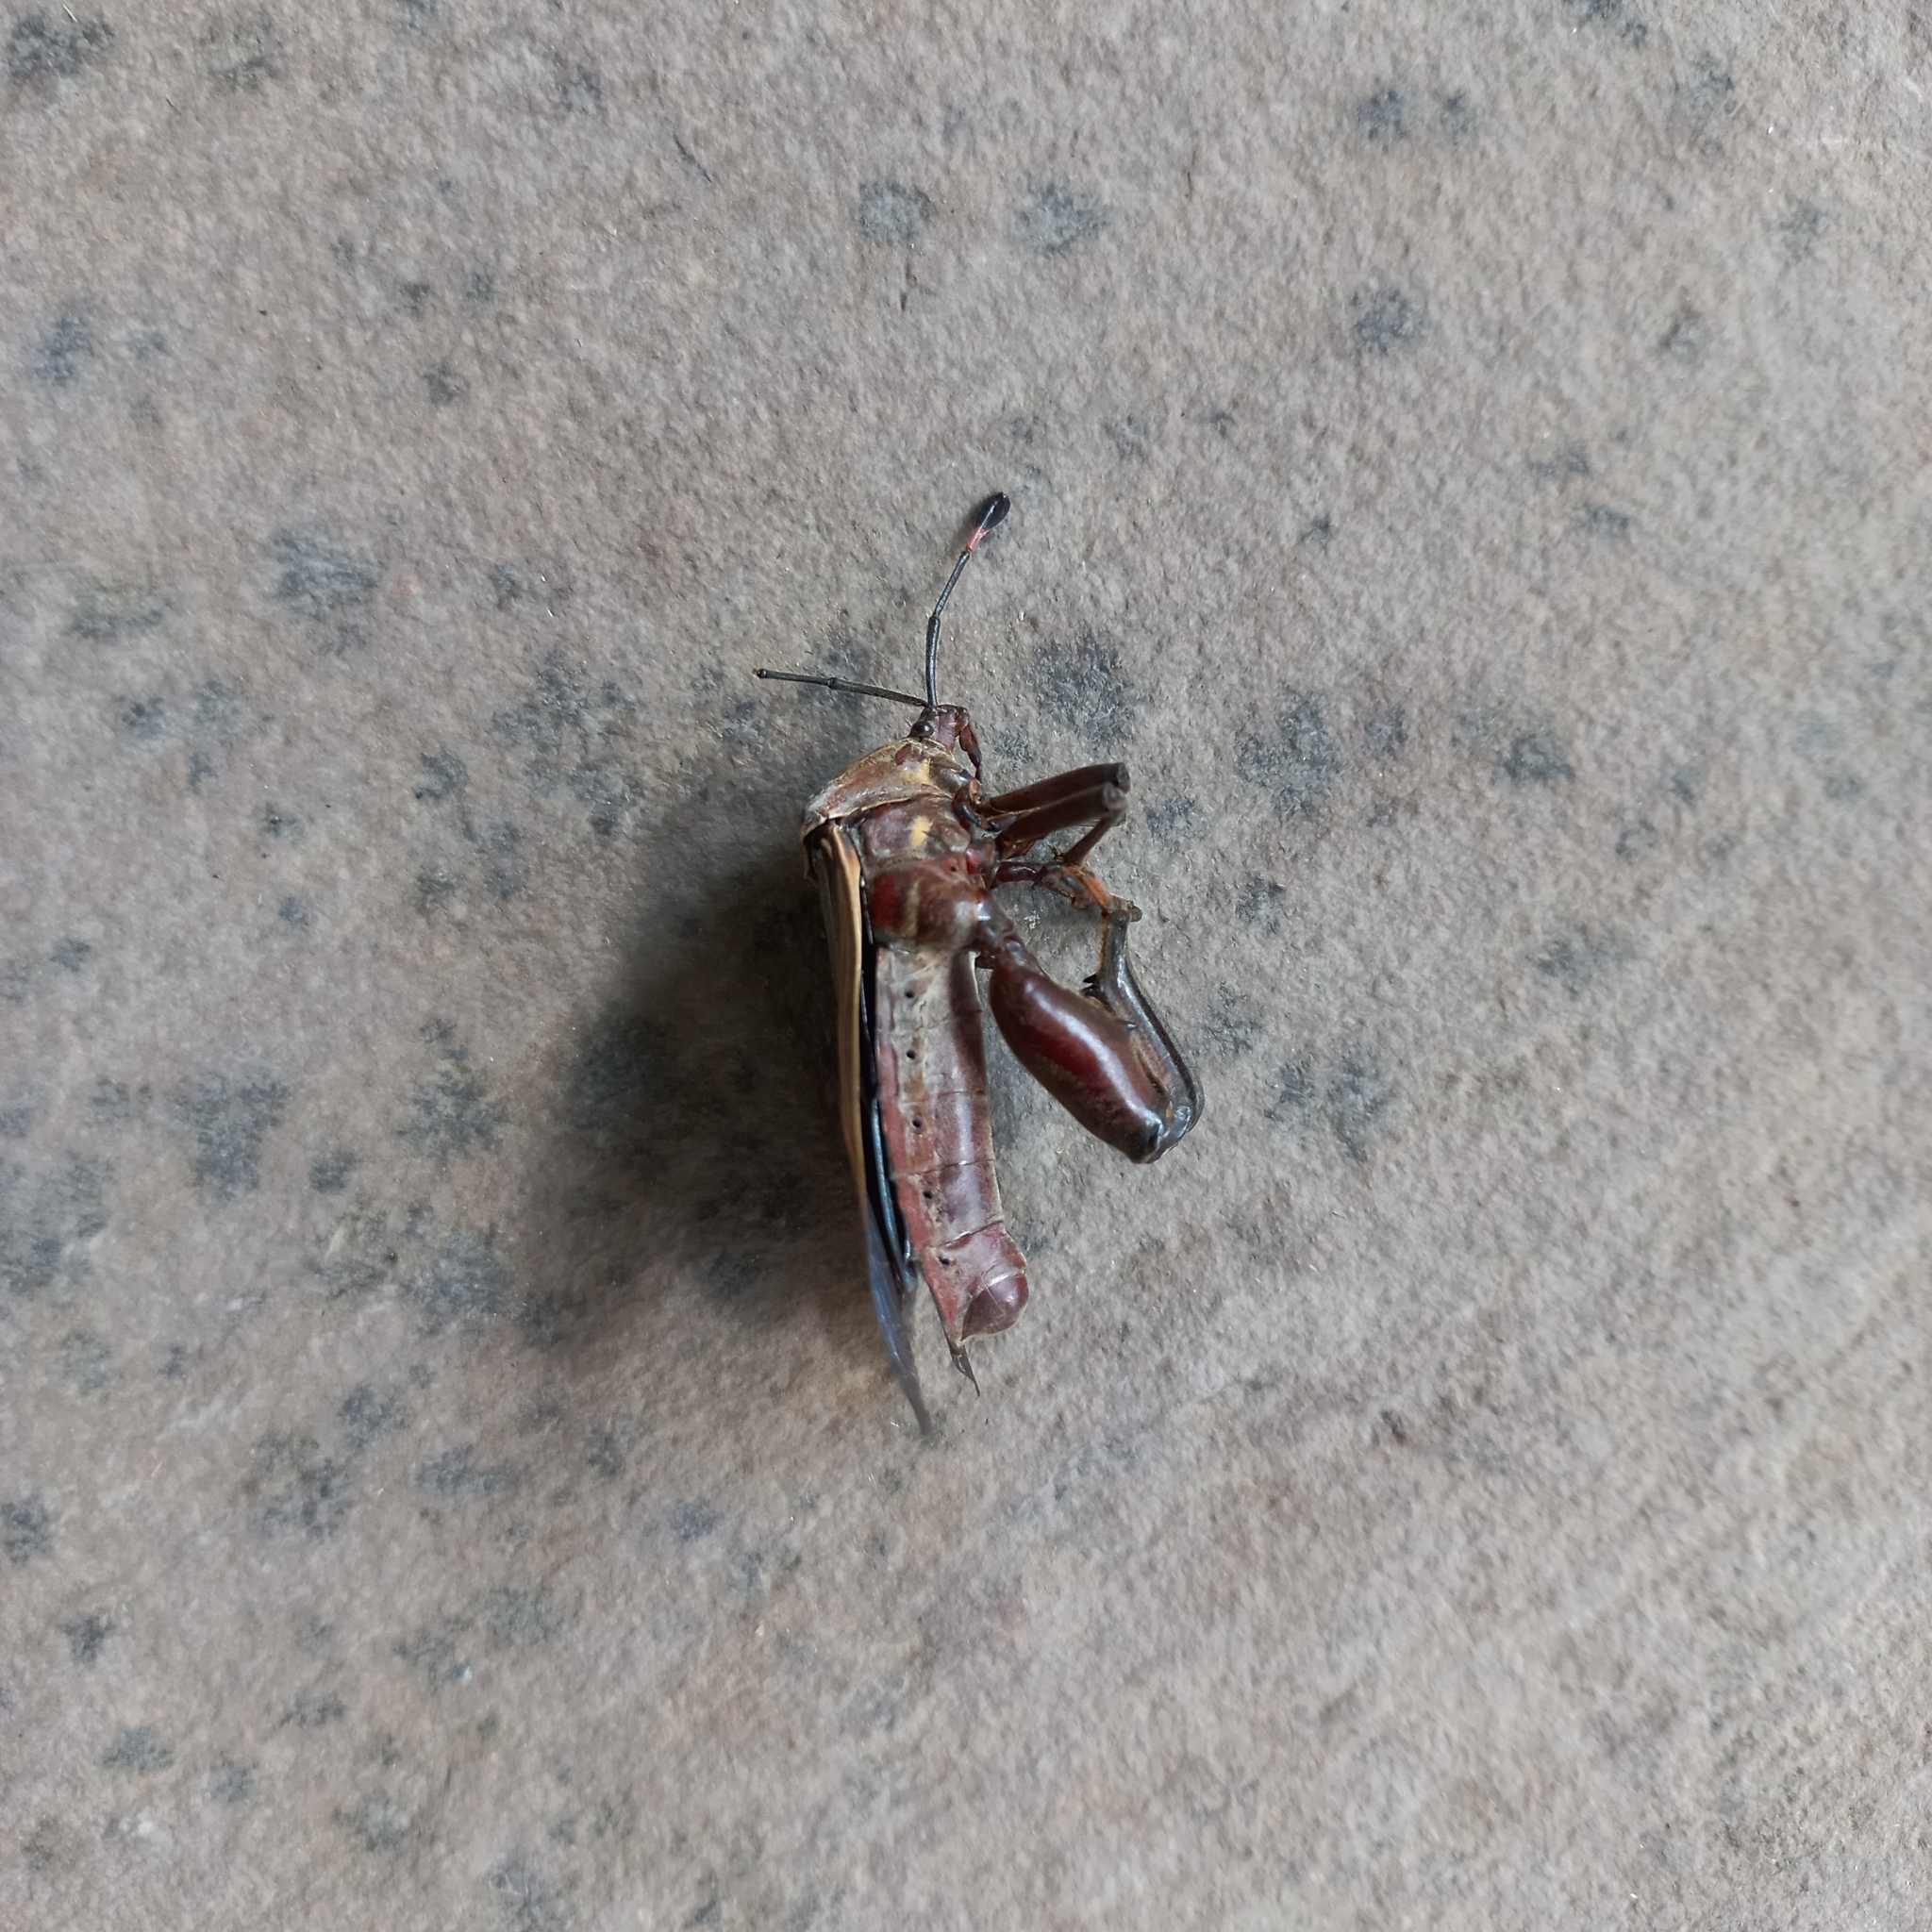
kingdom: Animalia
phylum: Arthropoda
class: Insecta
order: Hemiptera
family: Coreidae
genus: Pachylis
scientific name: Pachylis nervosus
